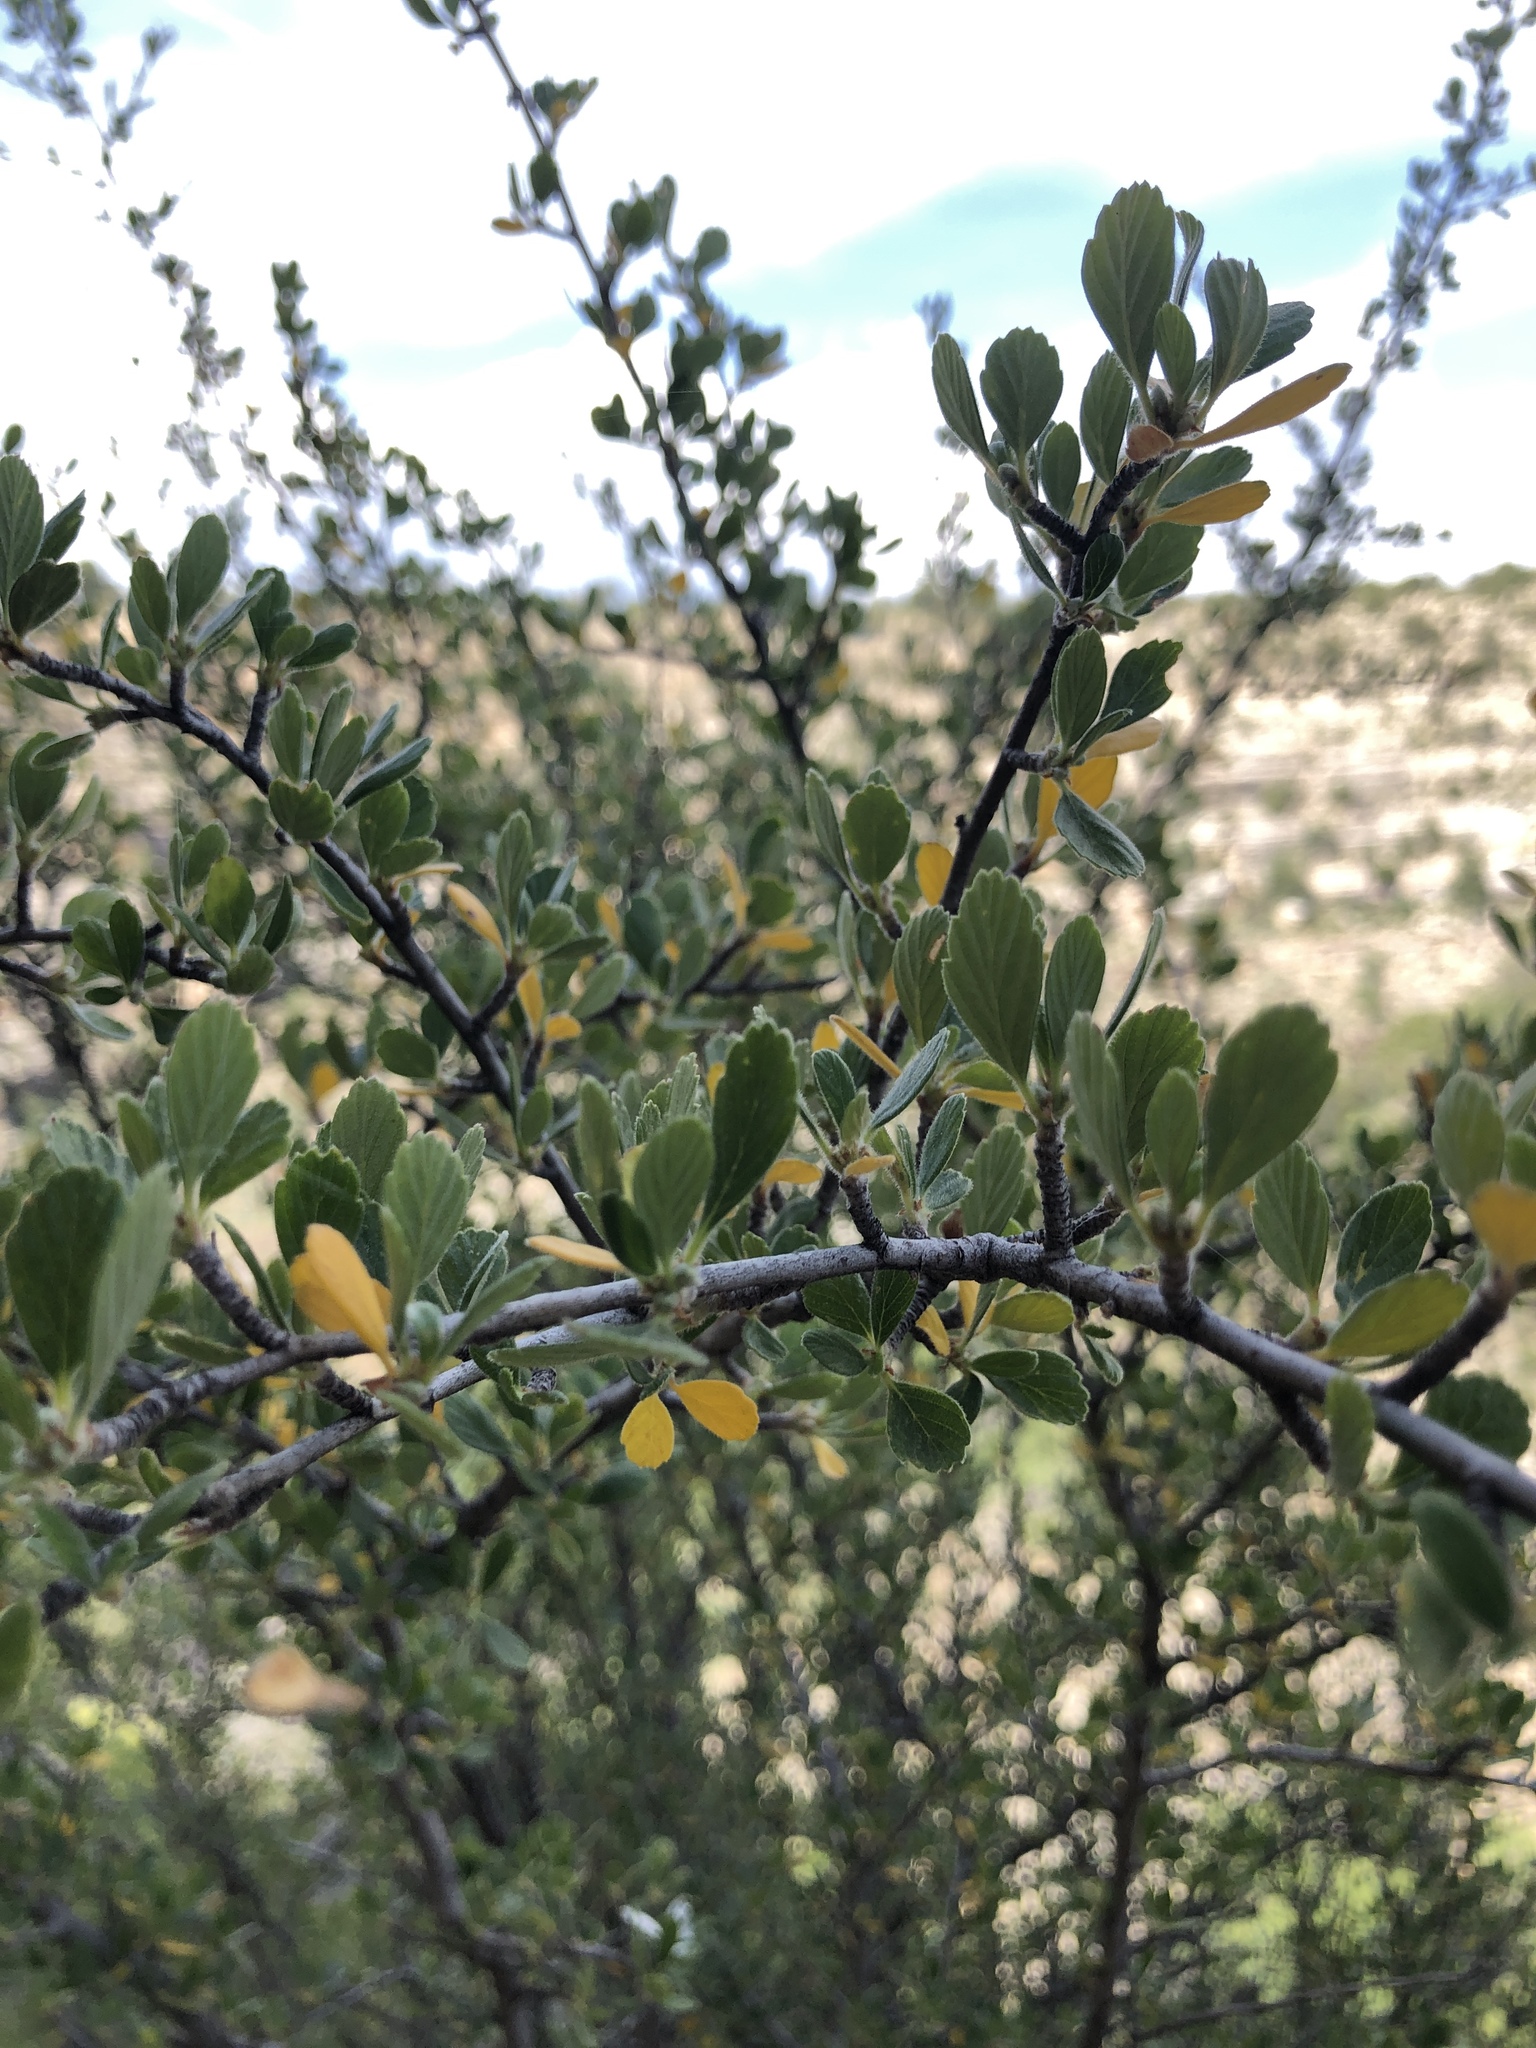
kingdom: Plantae
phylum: Tracheophyta
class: Magnoliopsida
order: Rosales
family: Rosaceae
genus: Cercocarpus
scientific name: Cercocarpus montanus
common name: Alder-leaf cercocarpus
